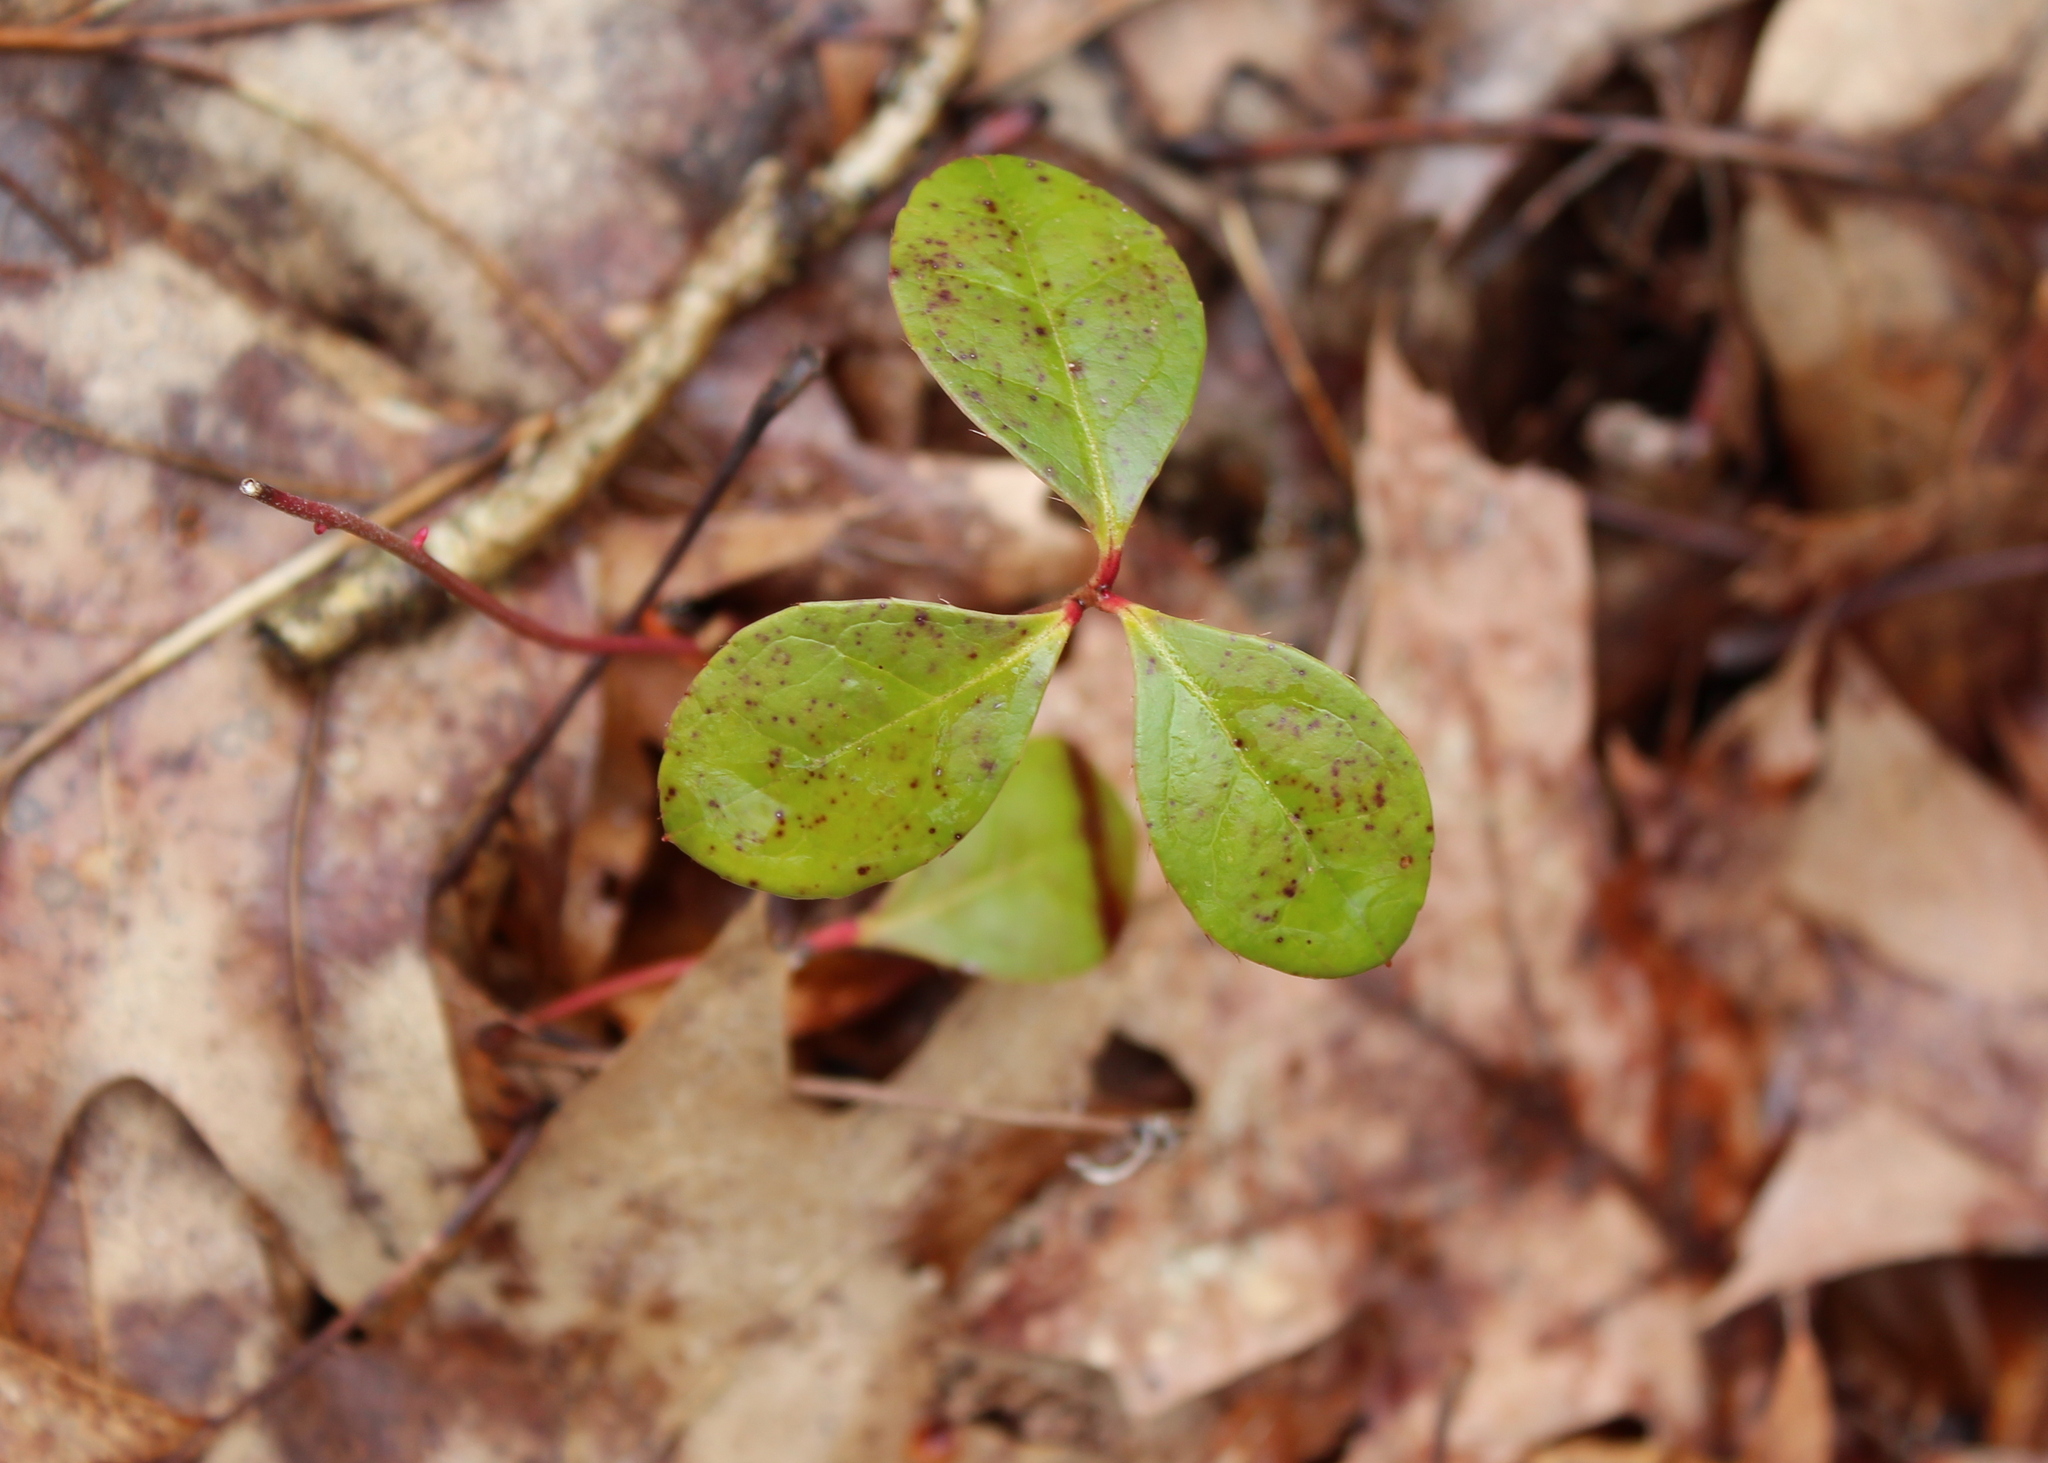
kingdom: Plantae
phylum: Tracheophyta
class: Magnoliopsida
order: Ericales
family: Ericaceae
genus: Gaultheria
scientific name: Gaultheria procumbens
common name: Checkerberry
